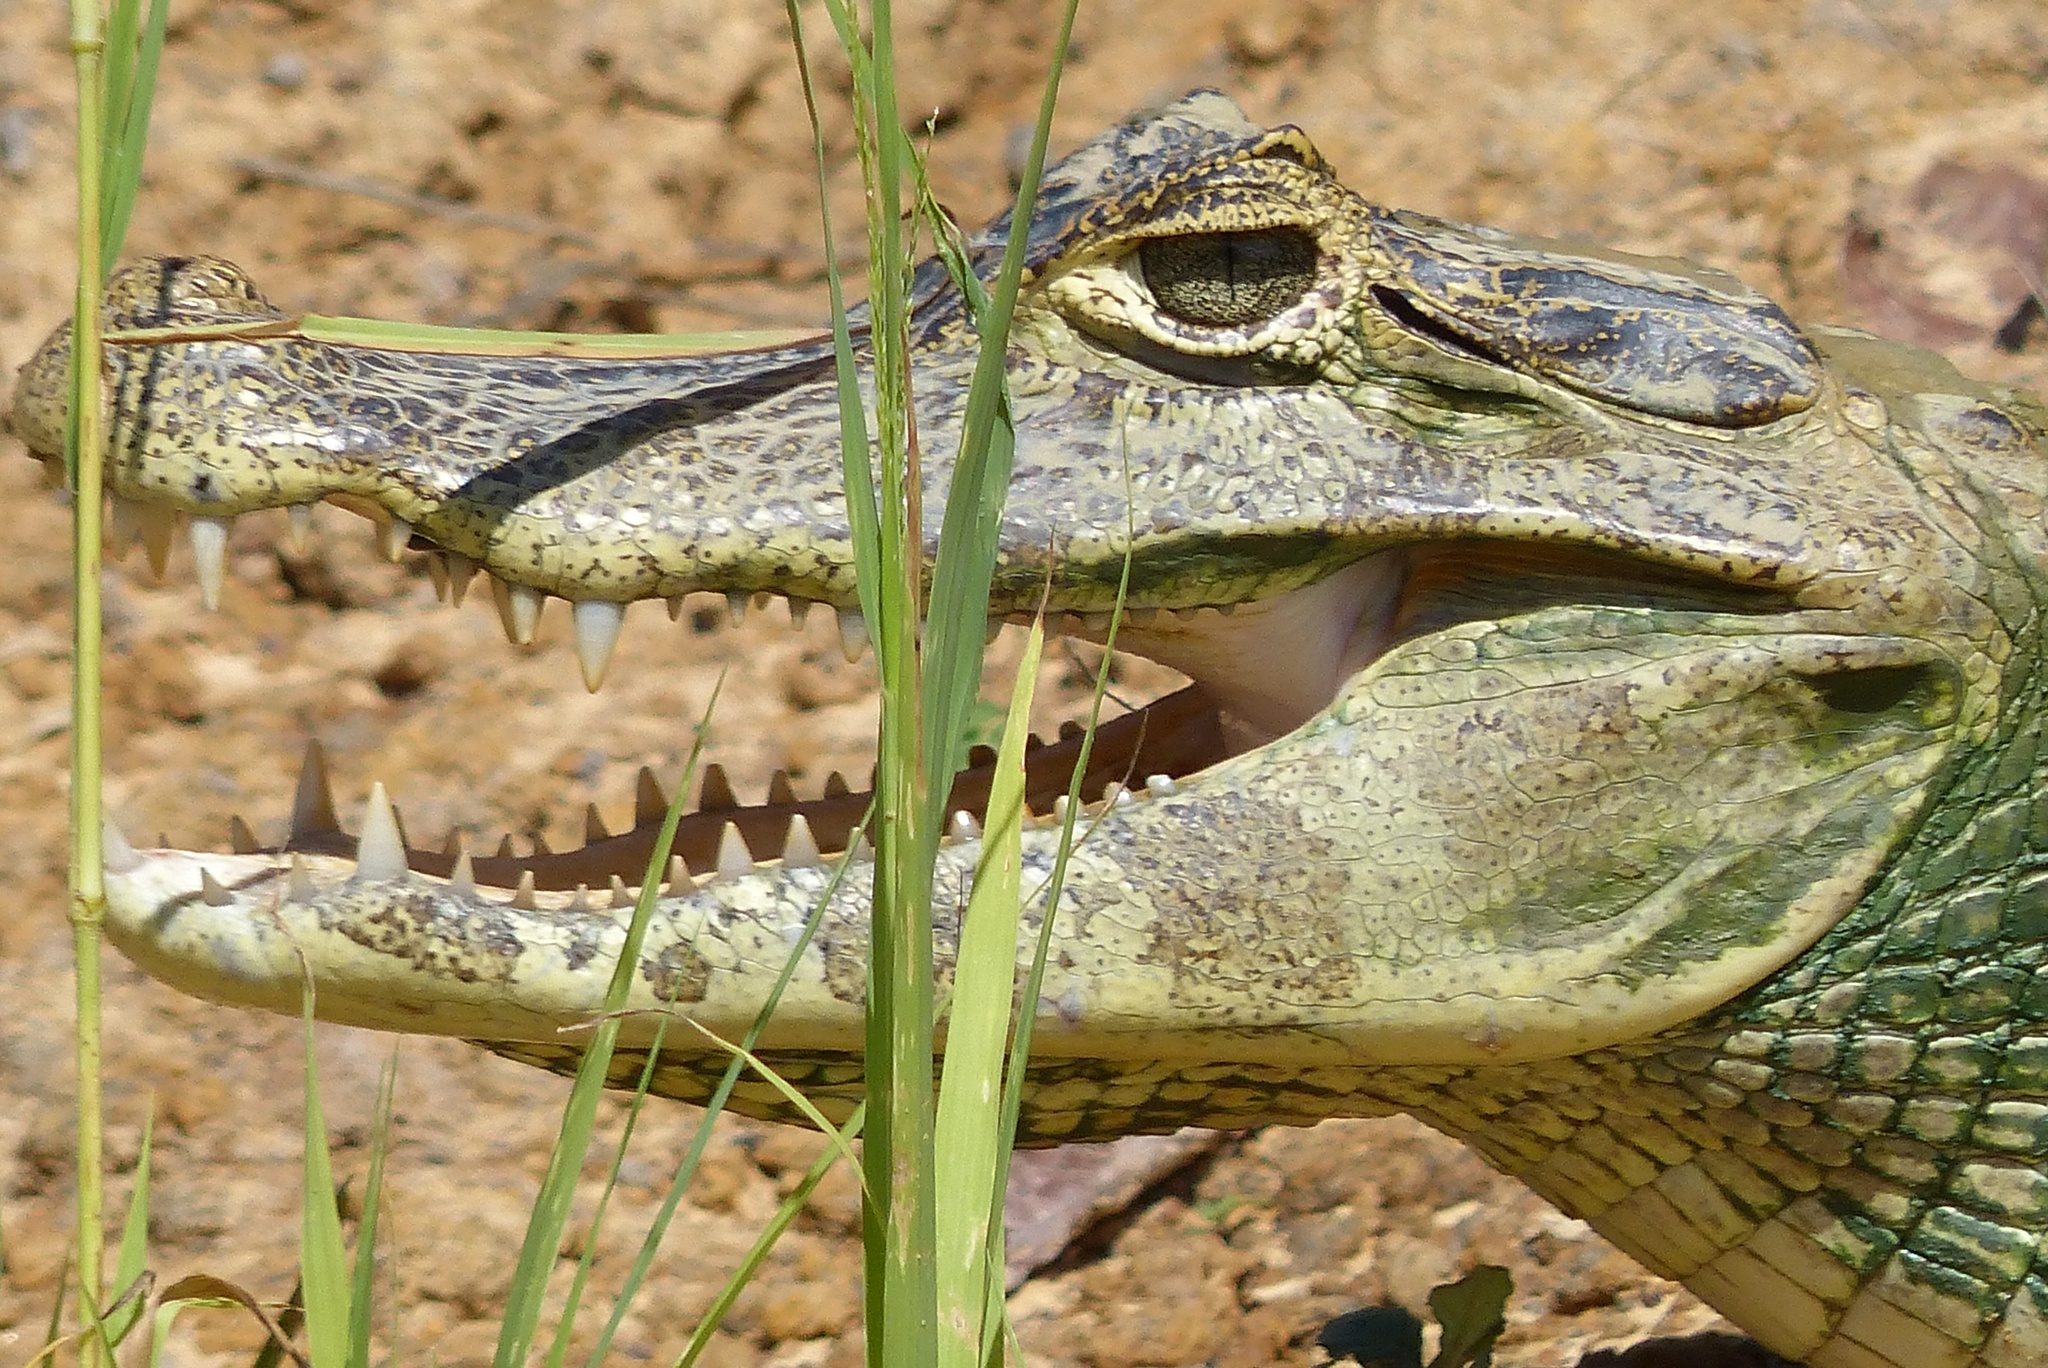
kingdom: Animalia
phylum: Chordata
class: Crocodylia
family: Alligatoridae
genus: Caiman
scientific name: Caiman yacare
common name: Yacare caiman
